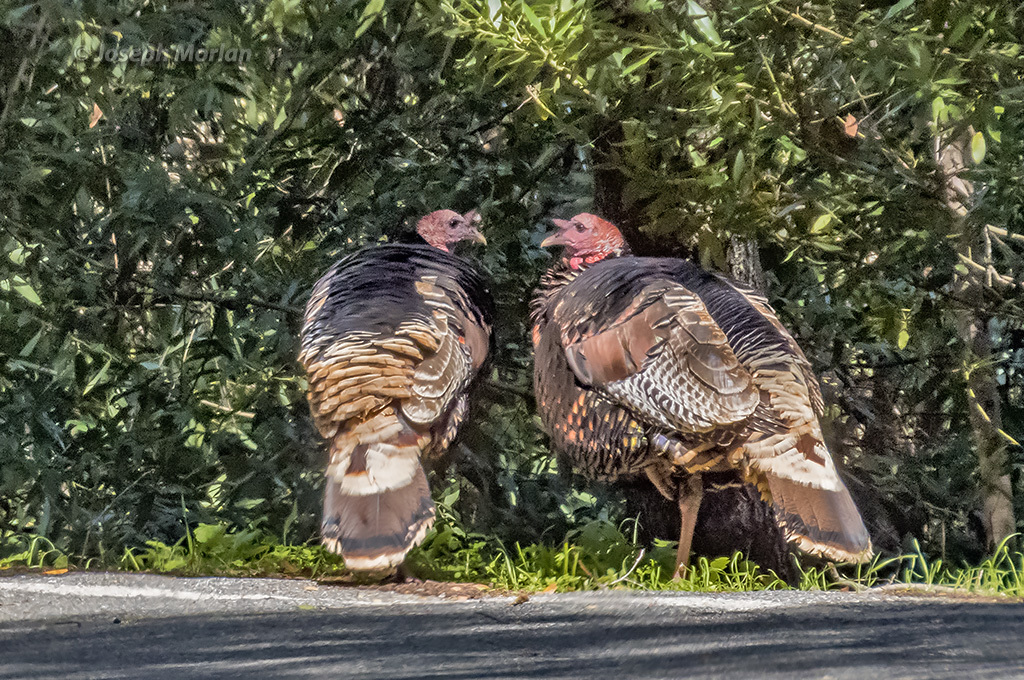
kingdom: Animalia
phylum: Chordata
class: Aves
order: Galliformes
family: Phasianidae
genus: Meleagris
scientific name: Meleagris gallopavo
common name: Wild turkey
